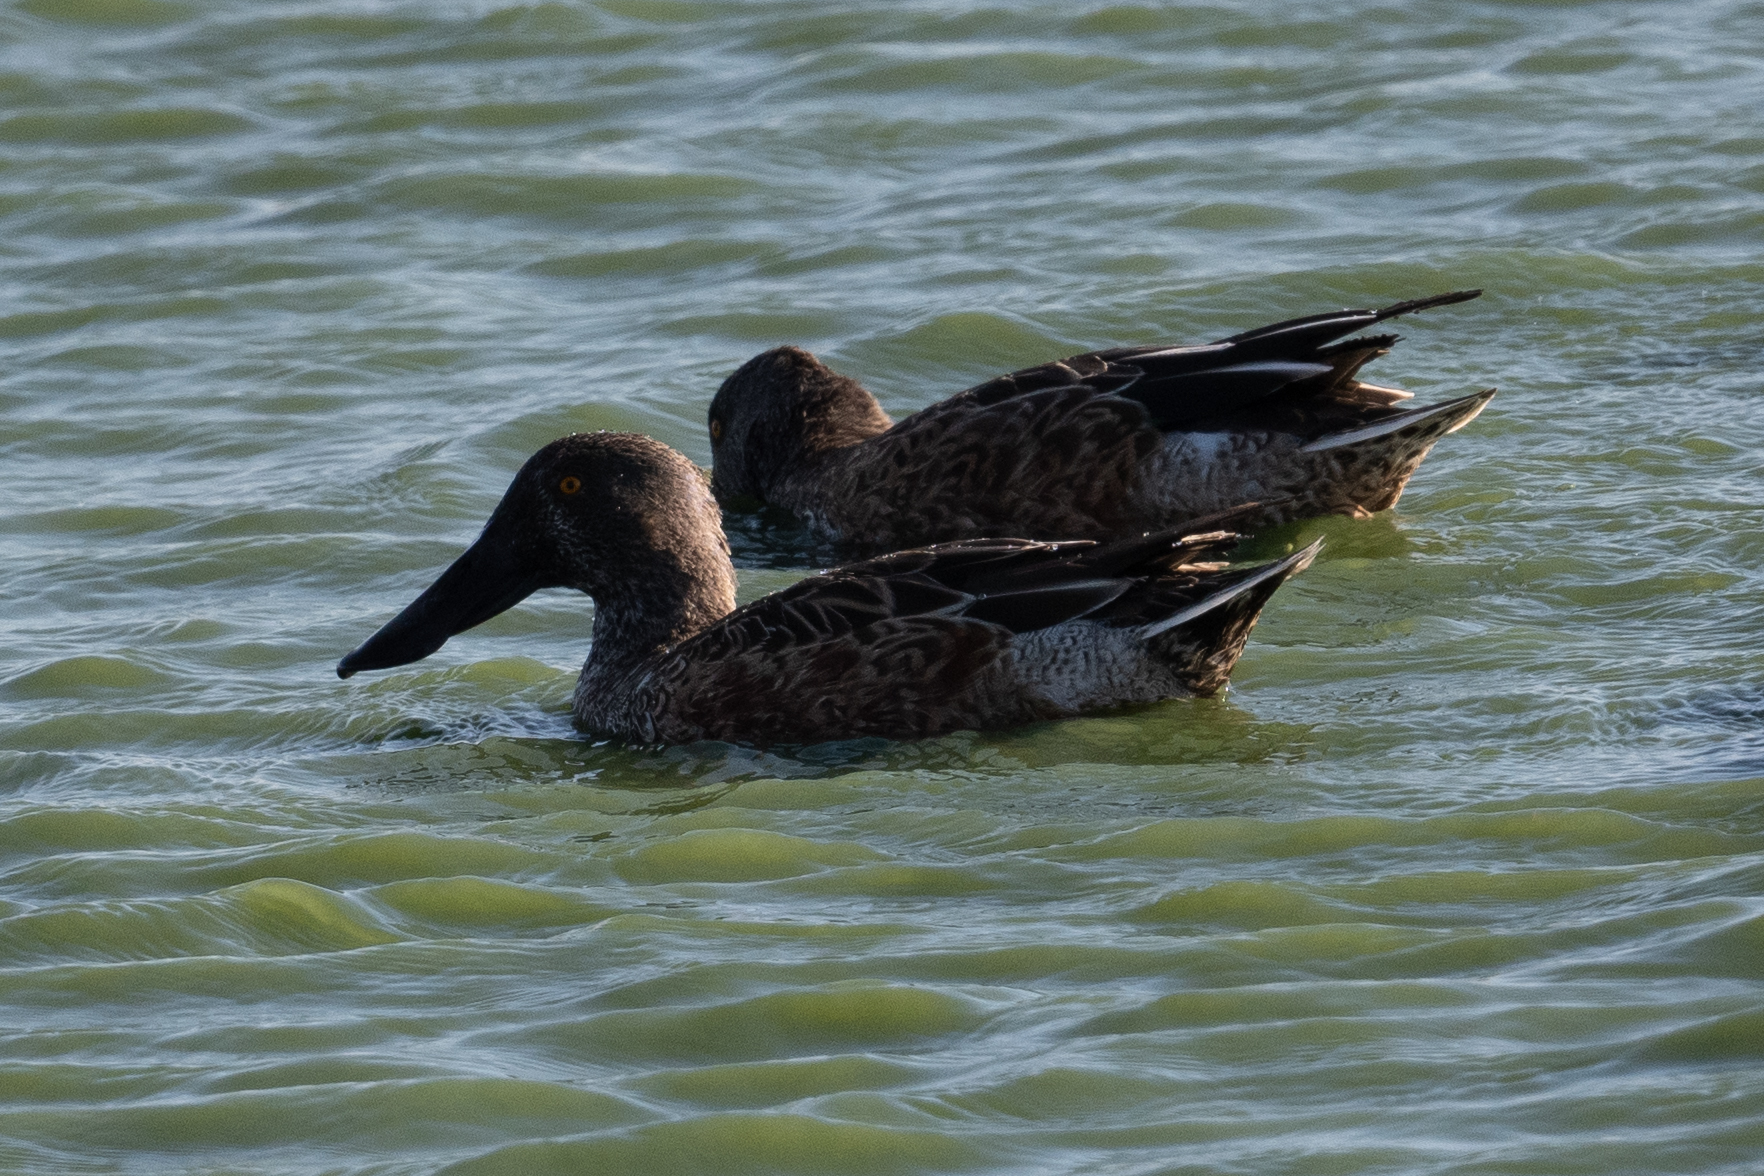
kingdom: Animalia
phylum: Chordata
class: Aves
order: Anseriformes
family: Anatidae
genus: Spatula
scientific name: Spatula clypeata
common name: Northern shoveler
